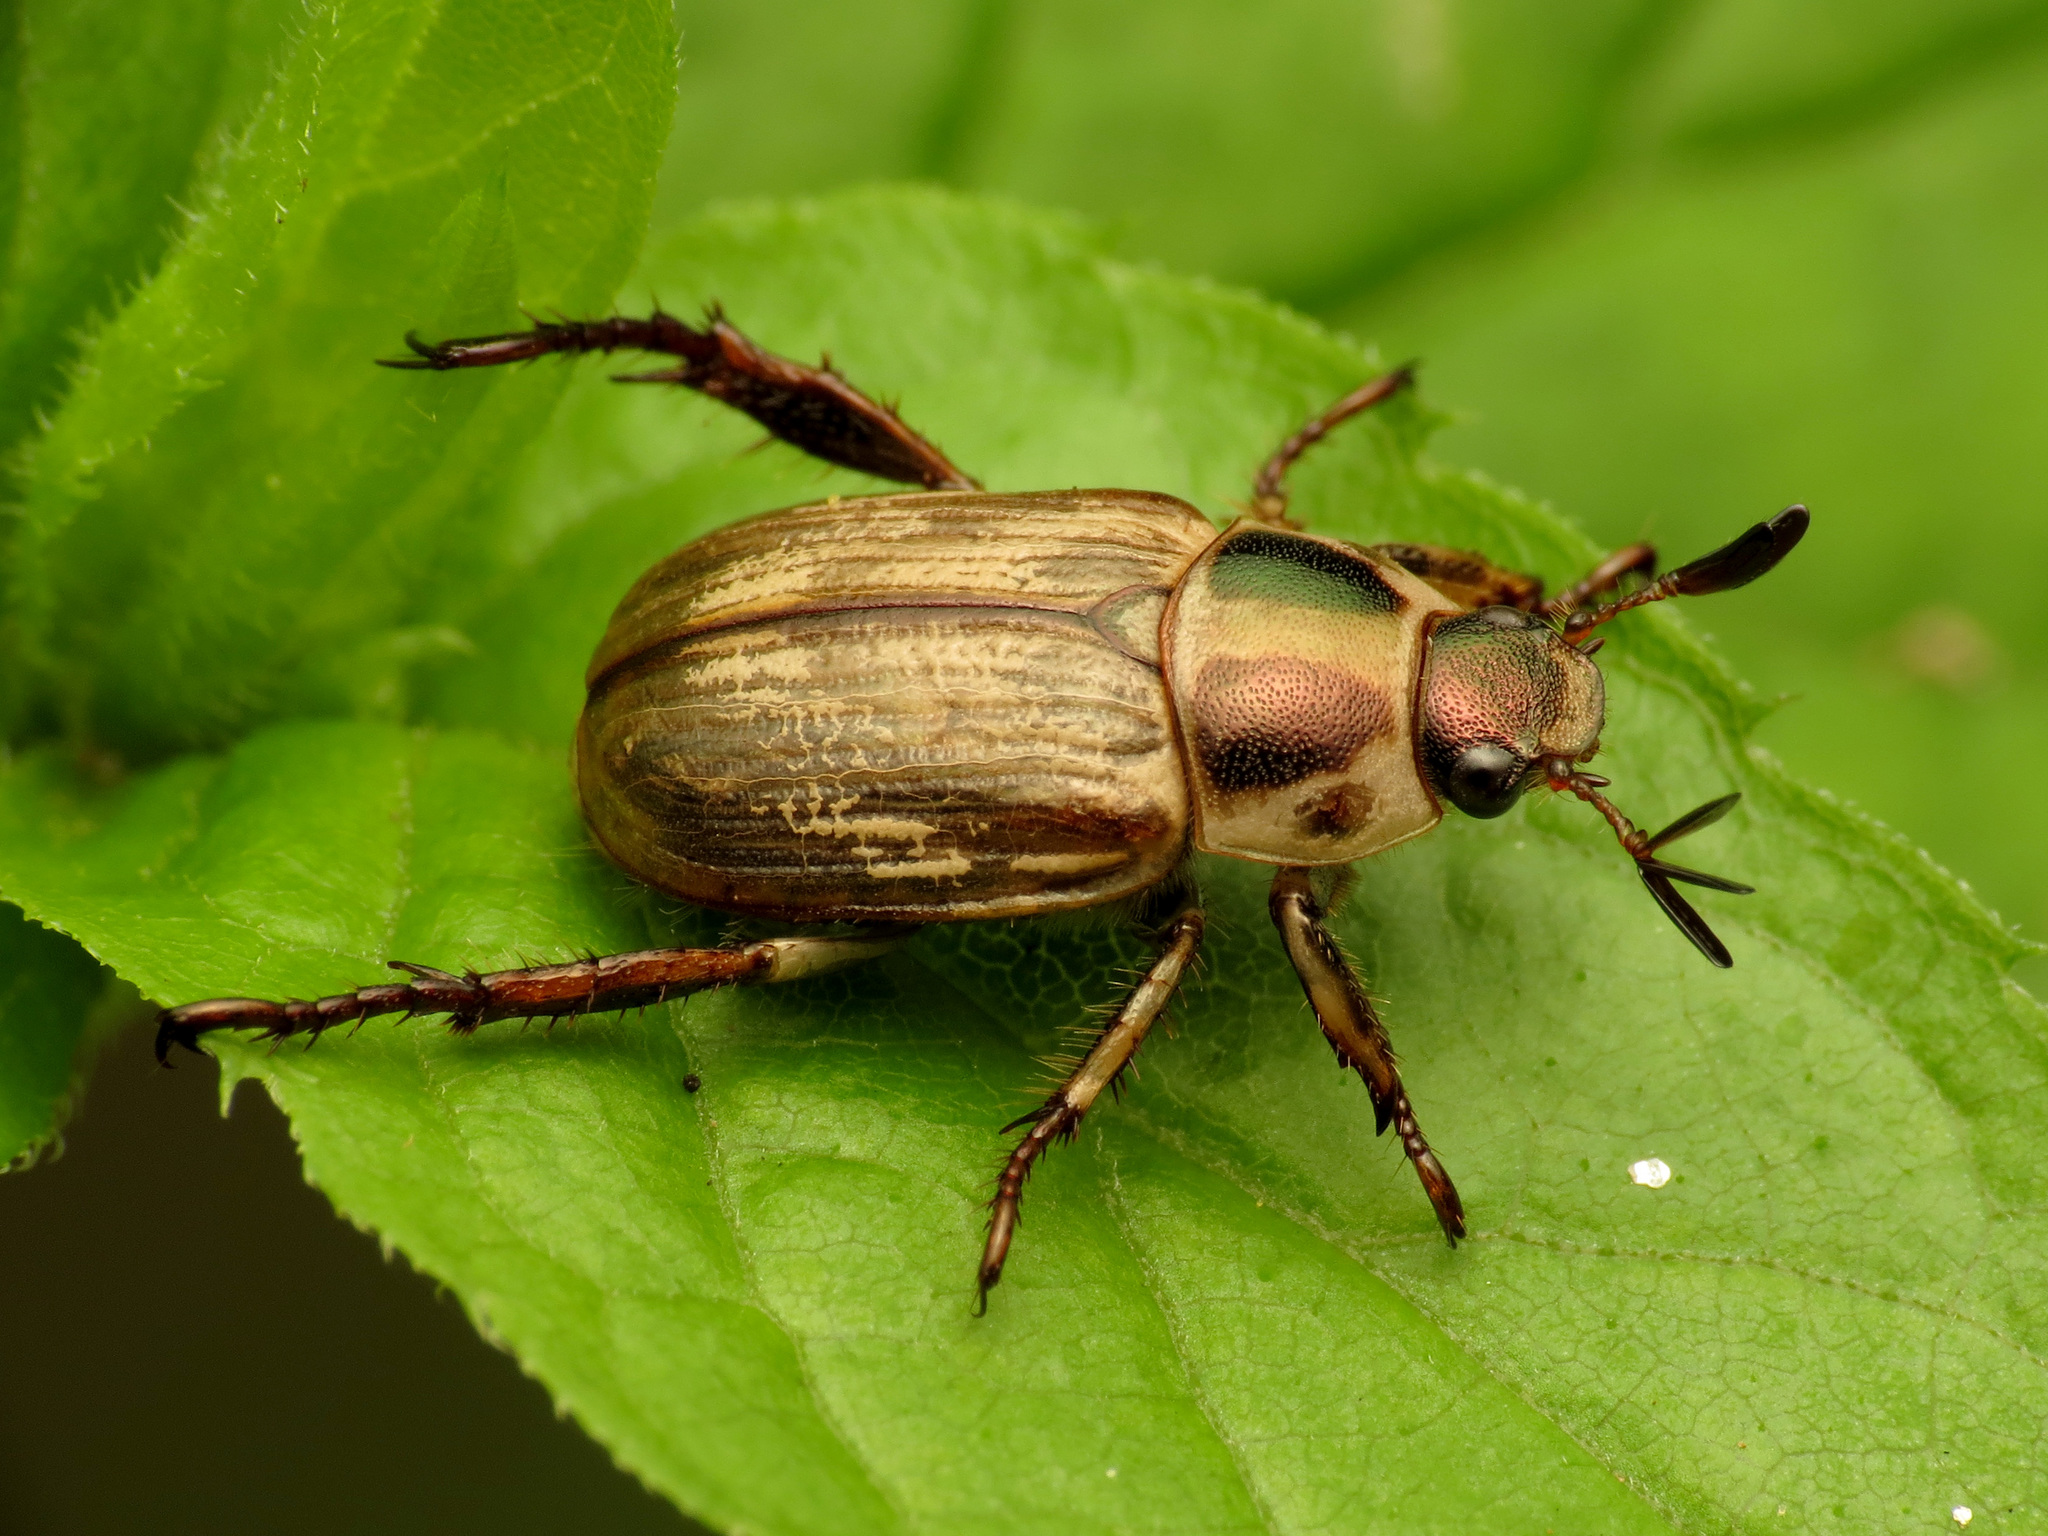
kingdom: Animalia
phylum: Arthropoda
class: Insecta
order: Coleoptera
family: Scarabaeidae
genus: Exomala
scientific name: Exomala orientalis
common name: Oriental beetle
